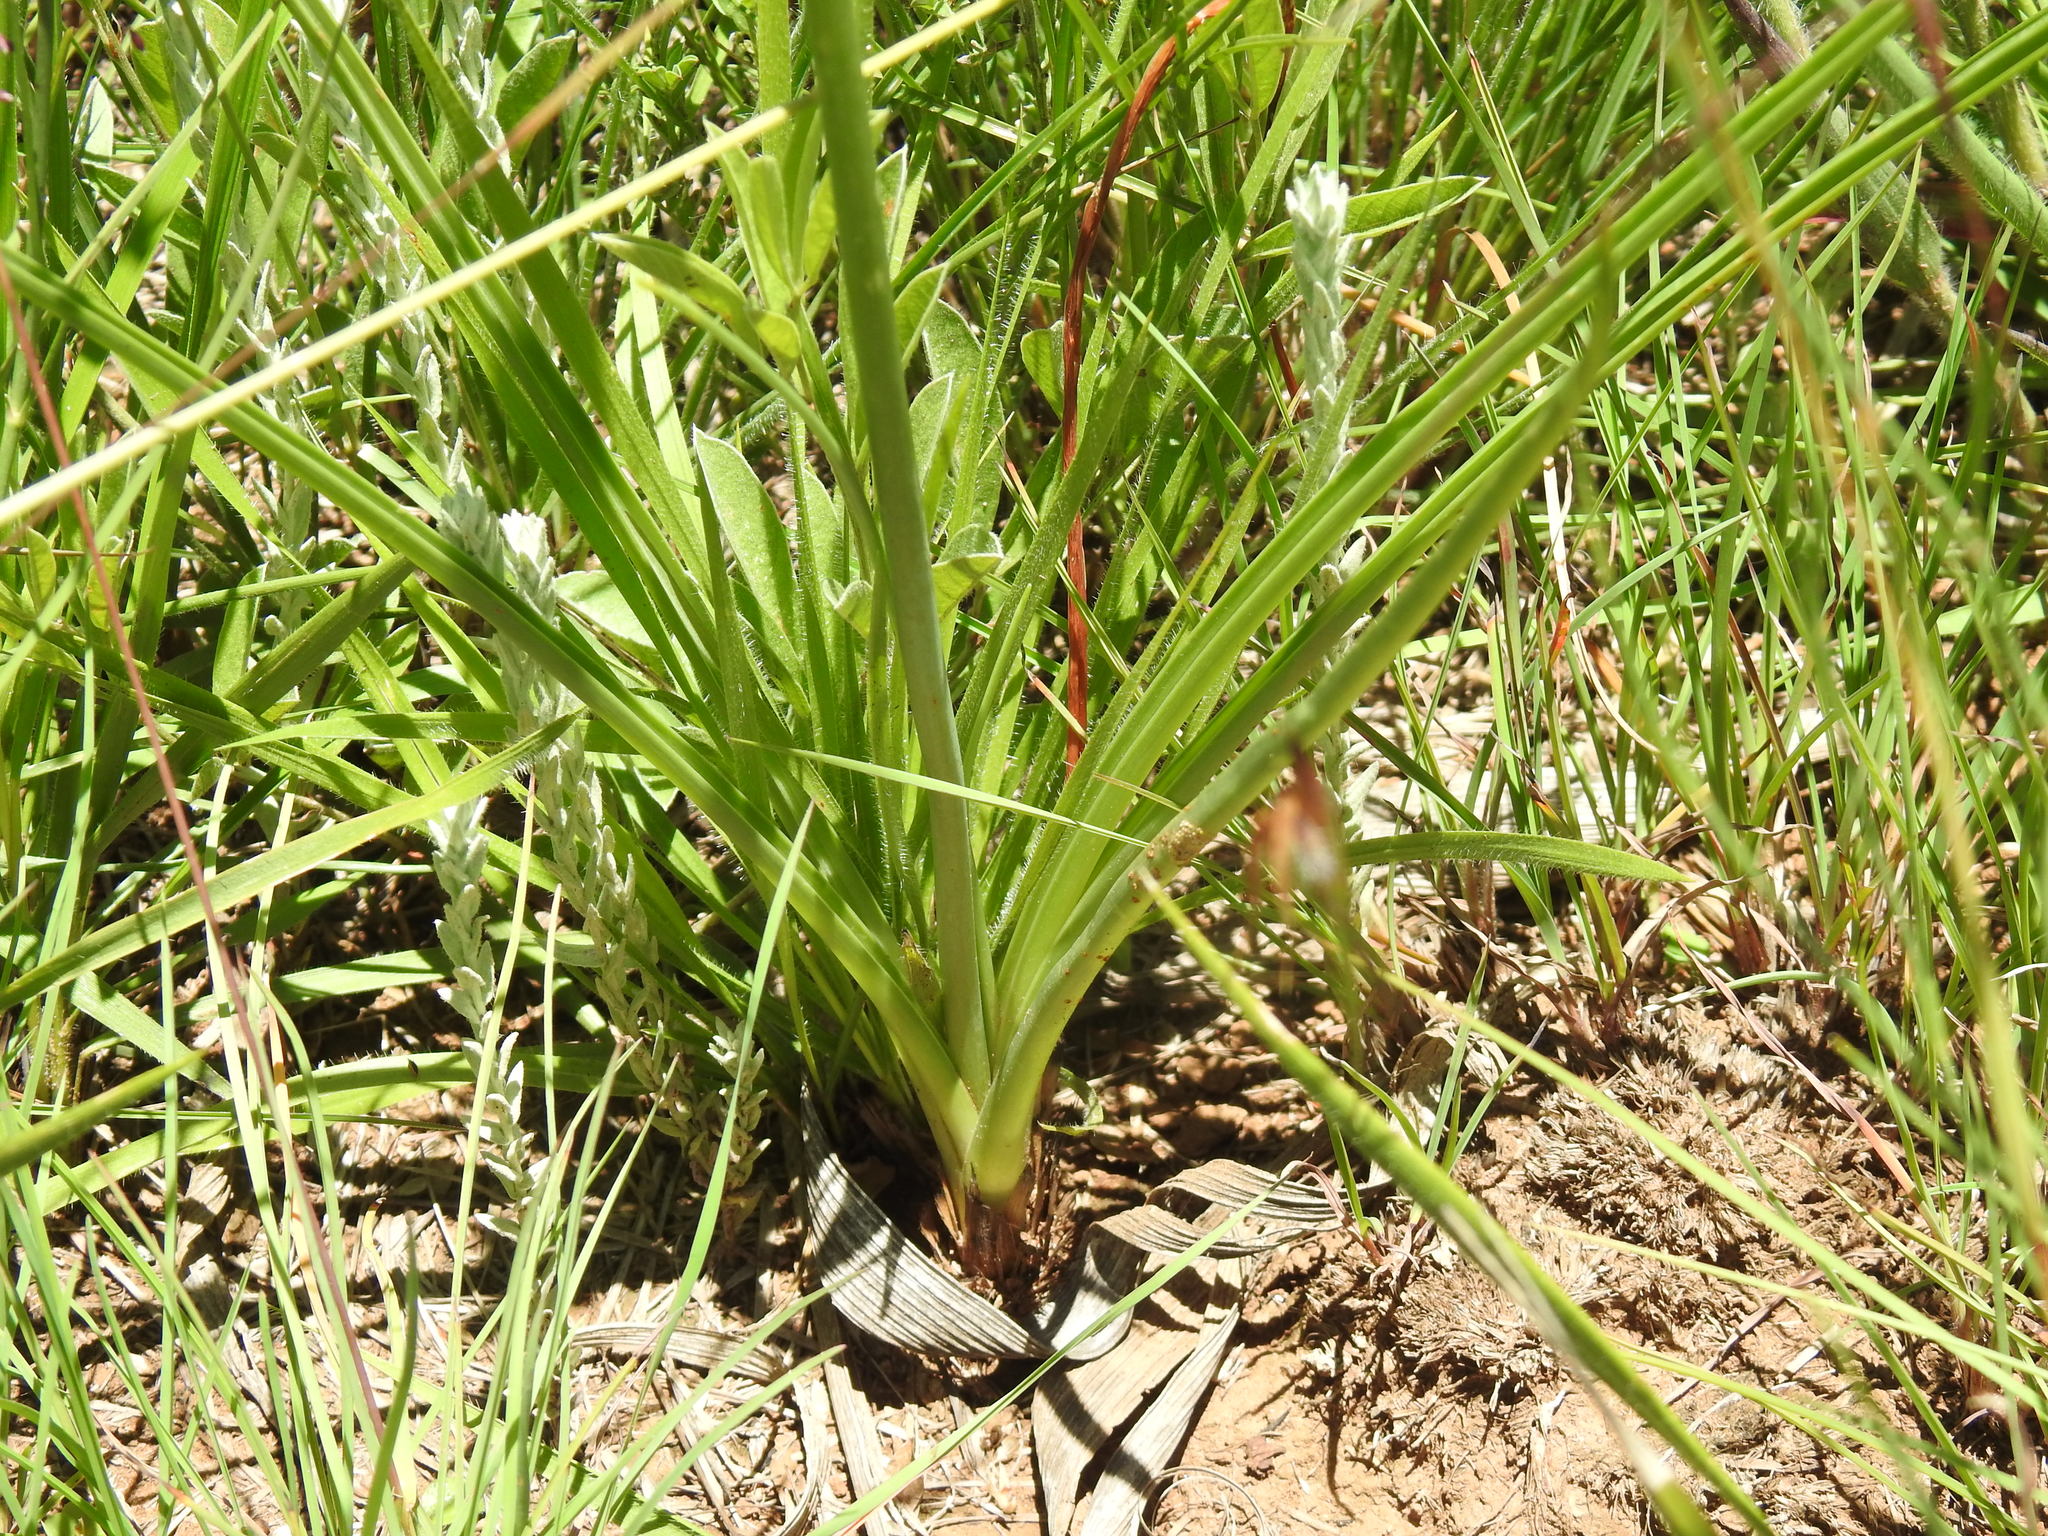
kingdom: Plantae
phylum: Tracheophyta
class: Liliopsida
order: Asparagales
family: Asparagaceae
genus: Albuca
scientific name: Albuca setosa
